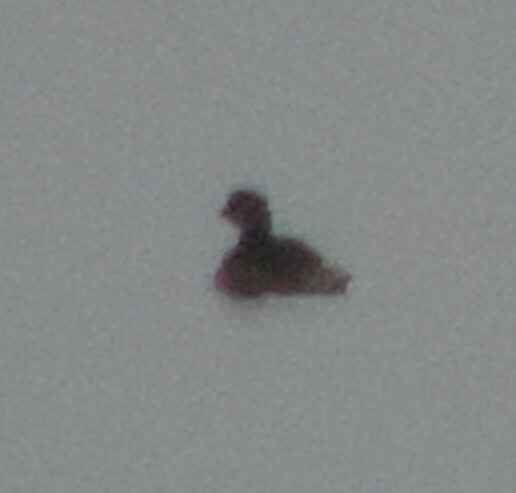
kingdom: Animalia
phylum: Chordata
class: Aves
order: Podicipediformes
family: Podicipedidae
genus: Podilymbus
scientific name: Podilymbus podiceps
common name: Pied-billed grebe
